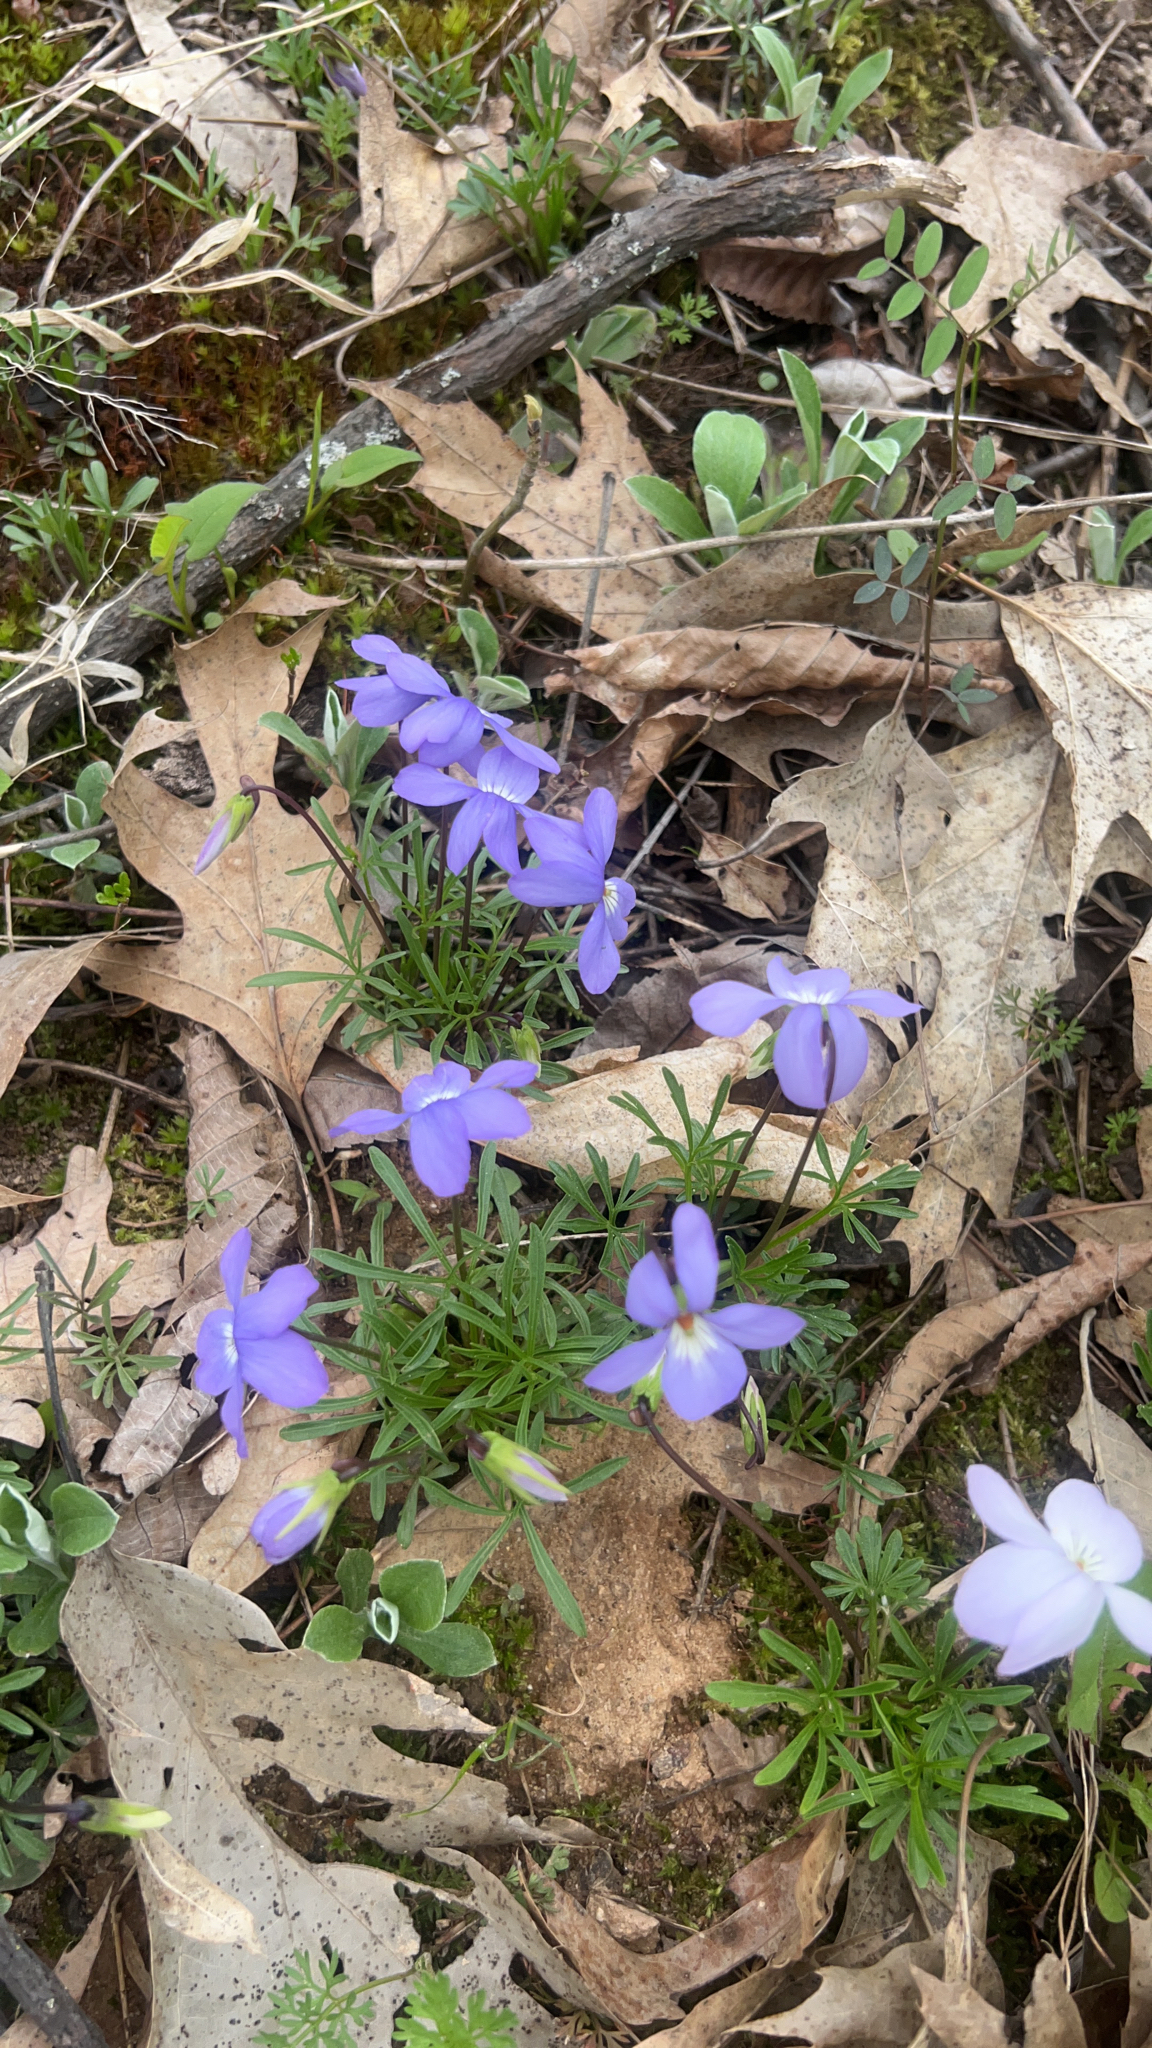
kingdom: Plantae
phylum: Tracheophyta
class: Magnoliopsida
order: Malpighiales
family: Violaceae
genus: Viola
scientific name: Viola pedata
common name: Pansy violet
